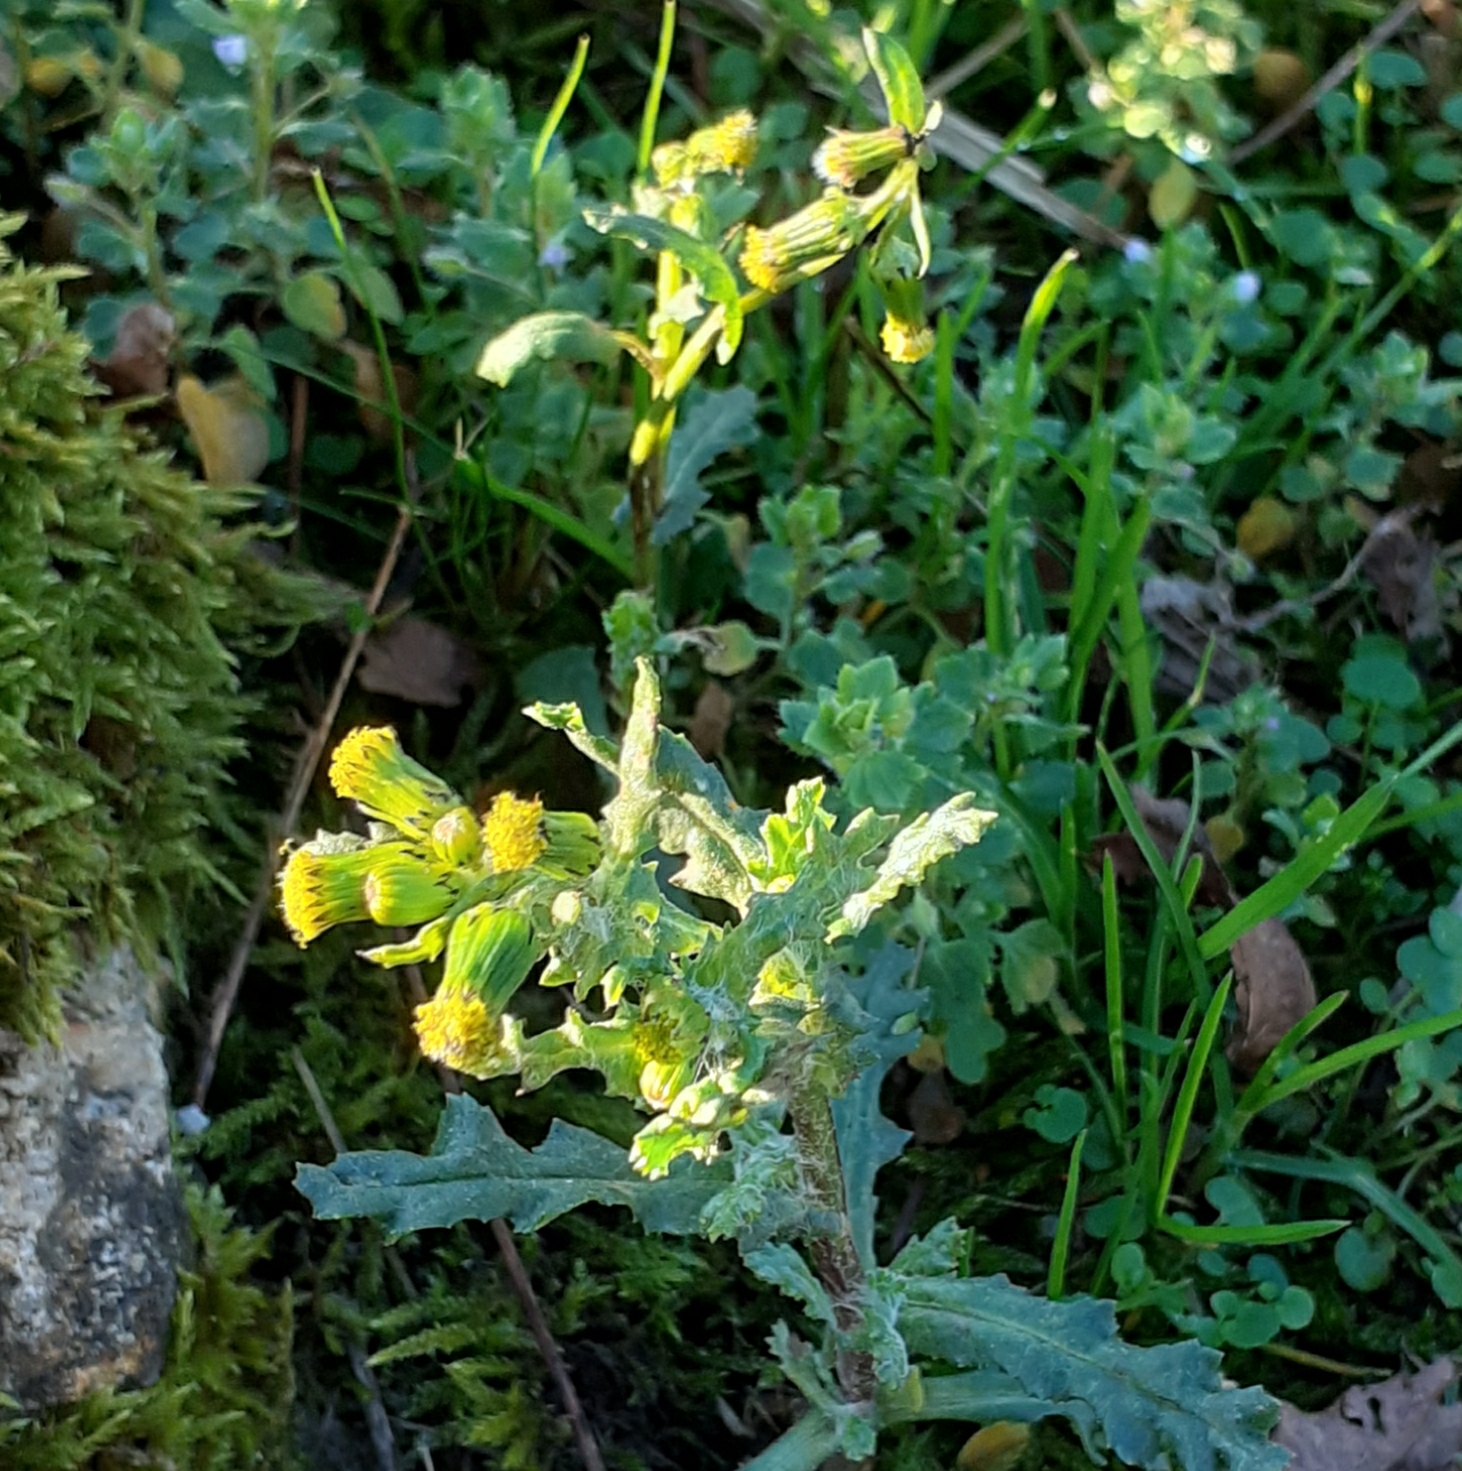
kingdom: Plantae
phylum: Tracheophyta
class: Magnoliopsida
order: Asterales
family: Asteraceae
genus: Senecio
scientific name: Senecio vulgaris
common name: Old-man-in-the-spring
